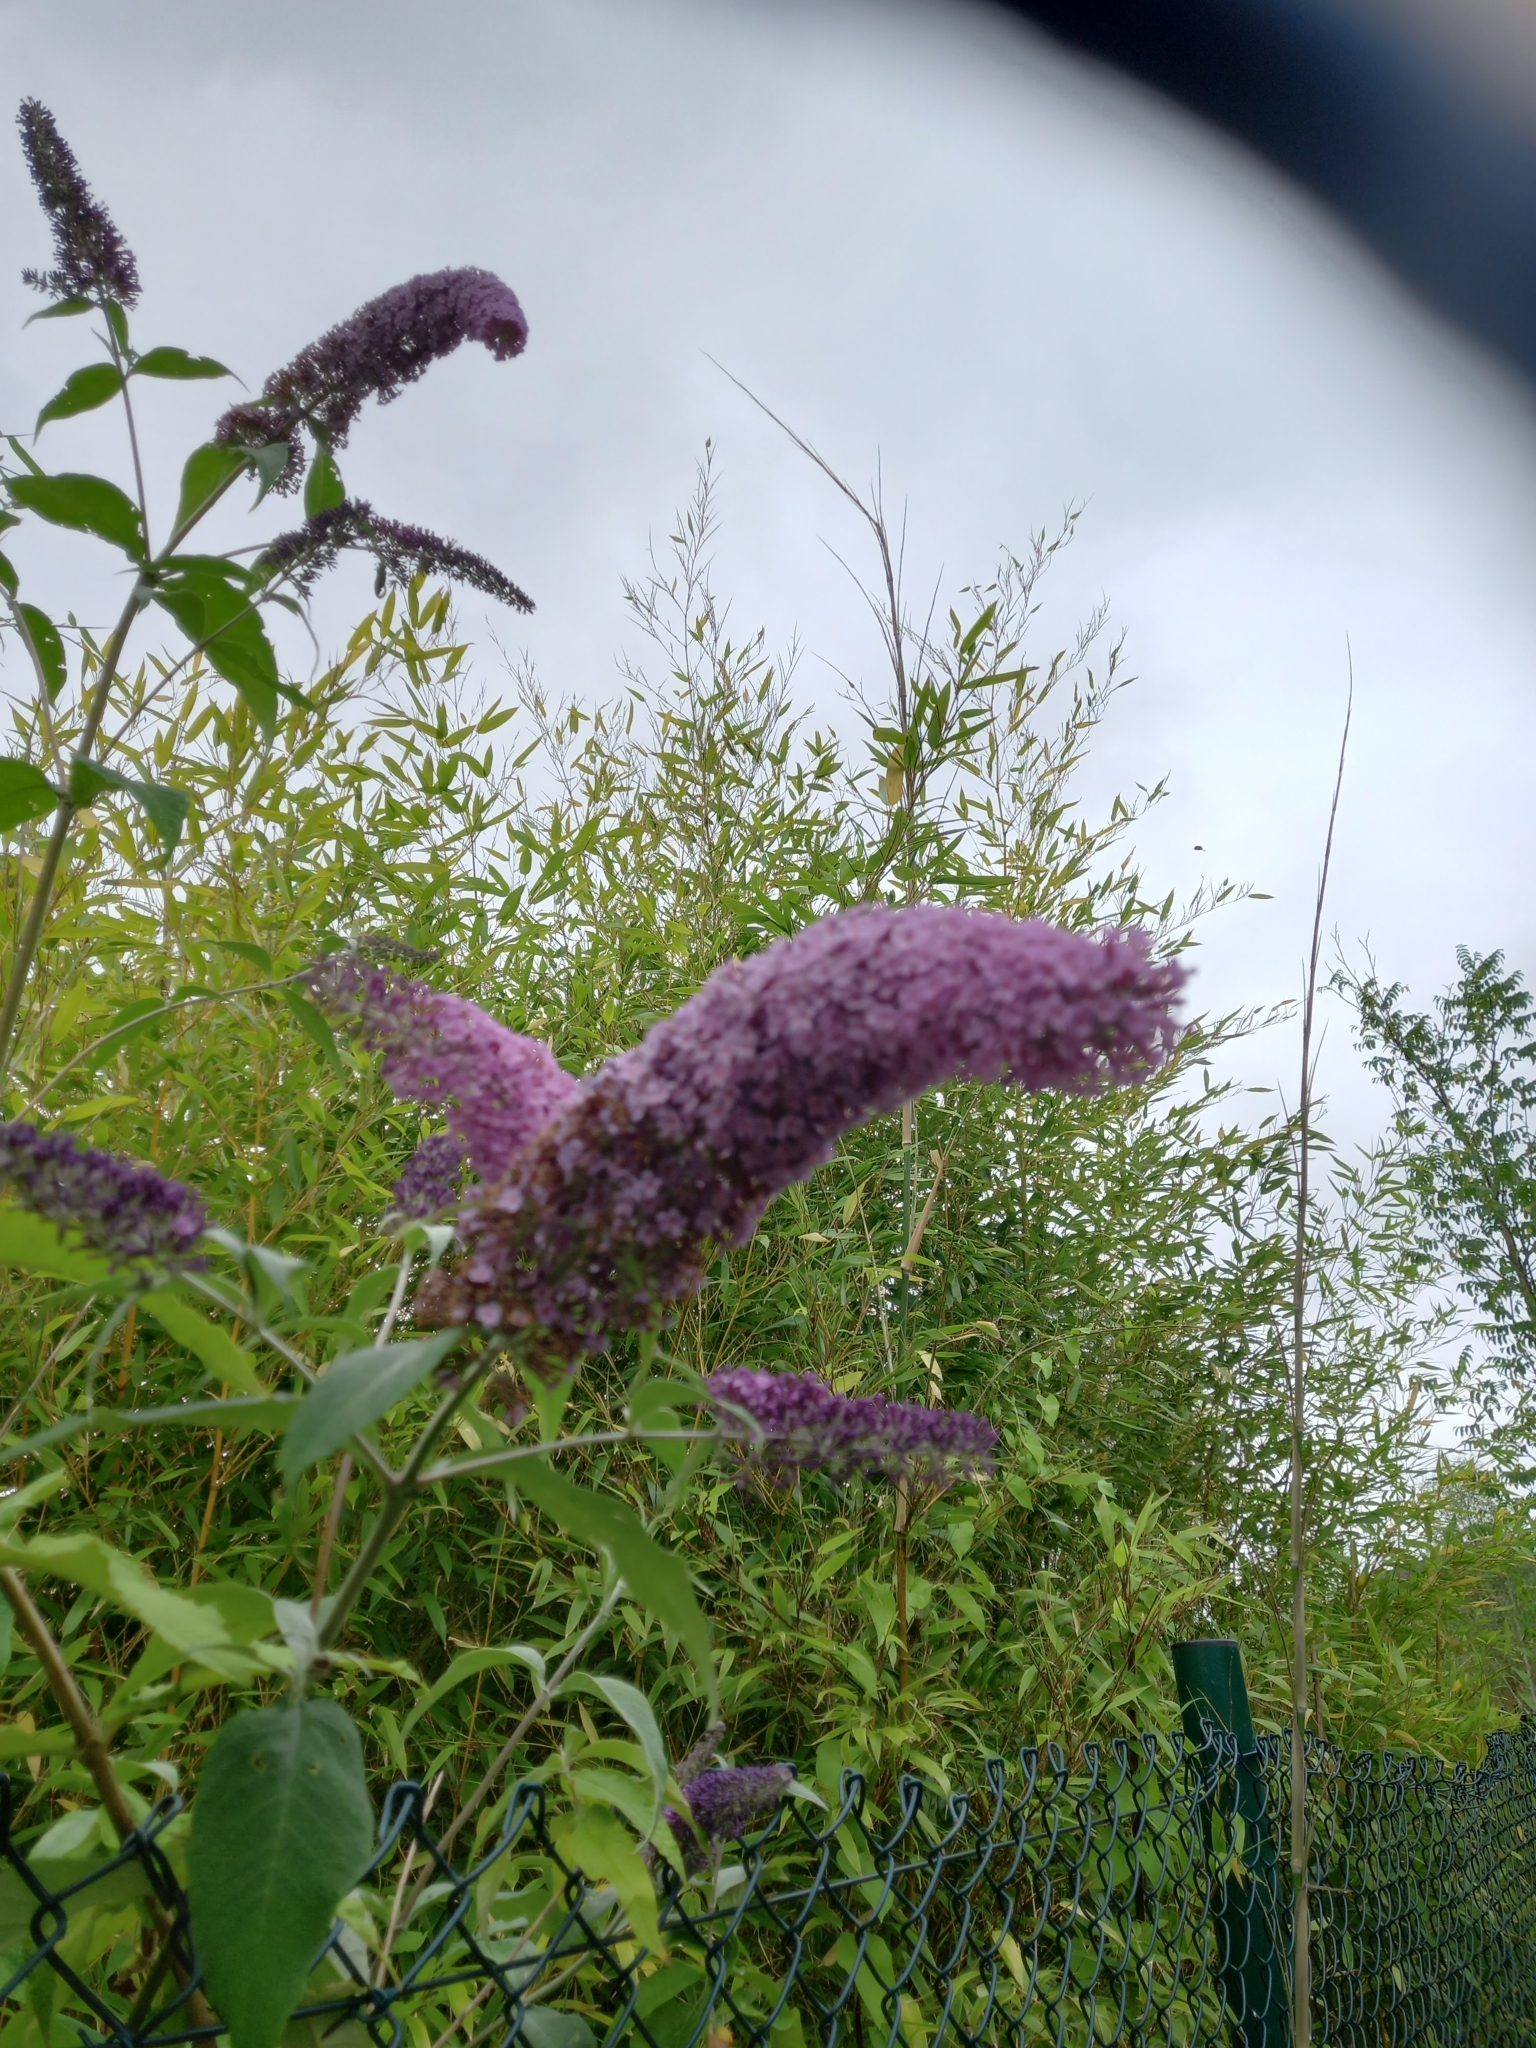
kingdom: Plantae
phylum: Tracheophyta
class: Magnoliopsida
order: Lamiales
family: Scrophulariaceae
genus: Buddleja
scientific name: Buddleja davidii
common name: Butterfly-bush
